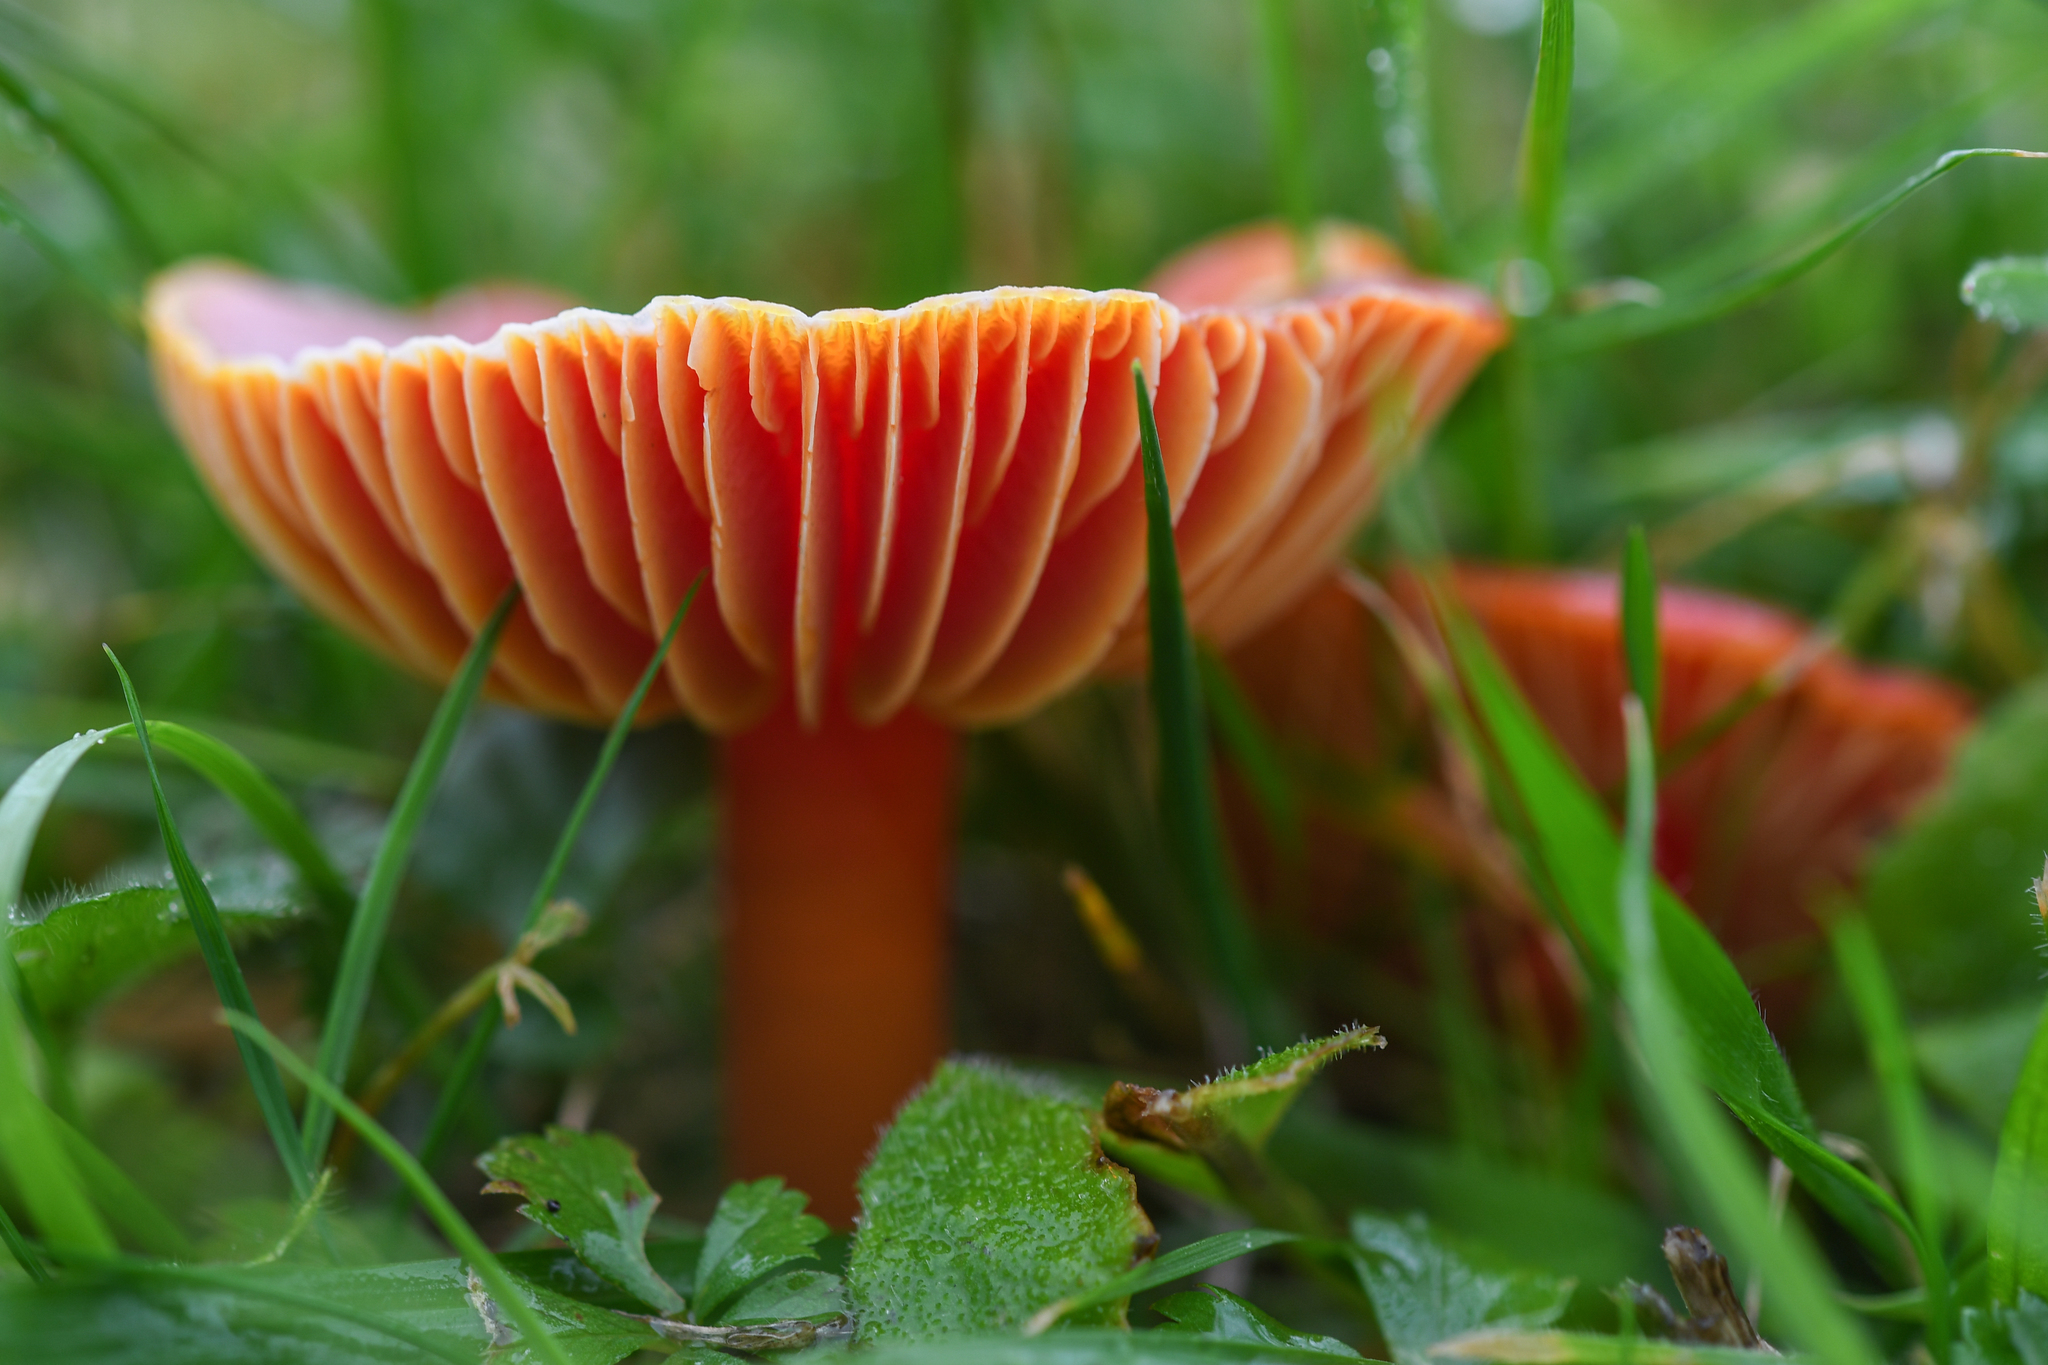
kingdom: Fungi
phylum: Basidiomycota
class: Agaricomycetes
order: Agaricales
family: Hygrophoraceae
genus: Hygrocybe
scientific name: Hygrocybe coccinea
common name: Scarlet hood
